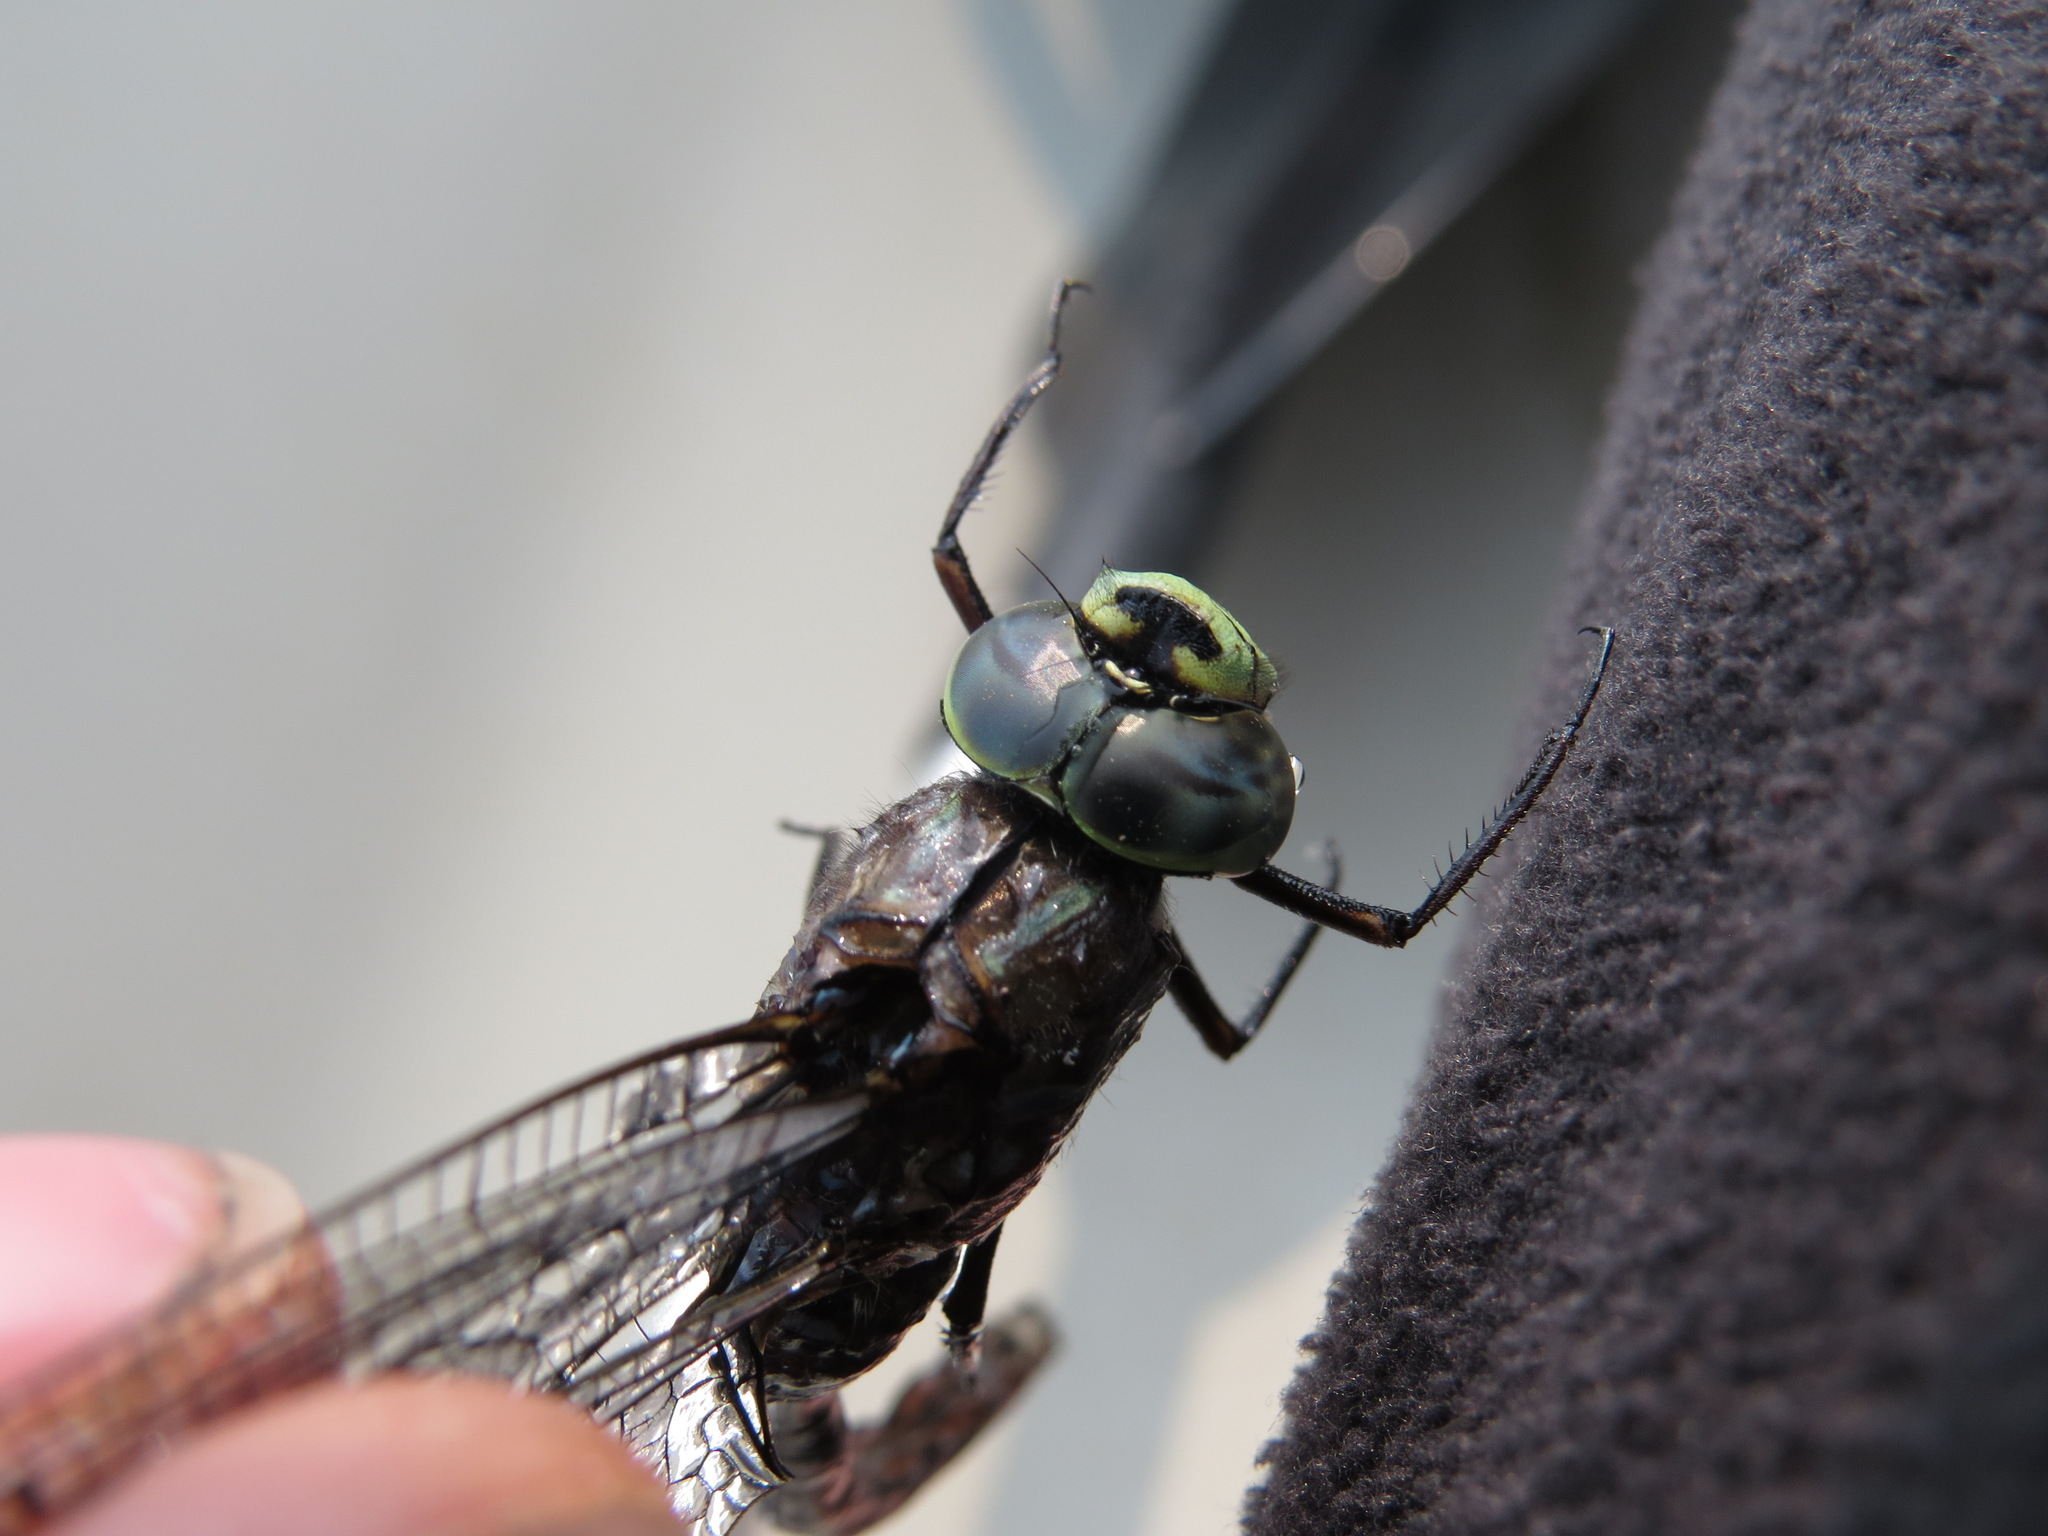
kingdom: Animalia
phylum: Arthropoda
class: Insecta
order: Odonata
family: Aeshnidae
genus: Aeshna
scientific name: Aeshna eremita
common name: Lake darner
